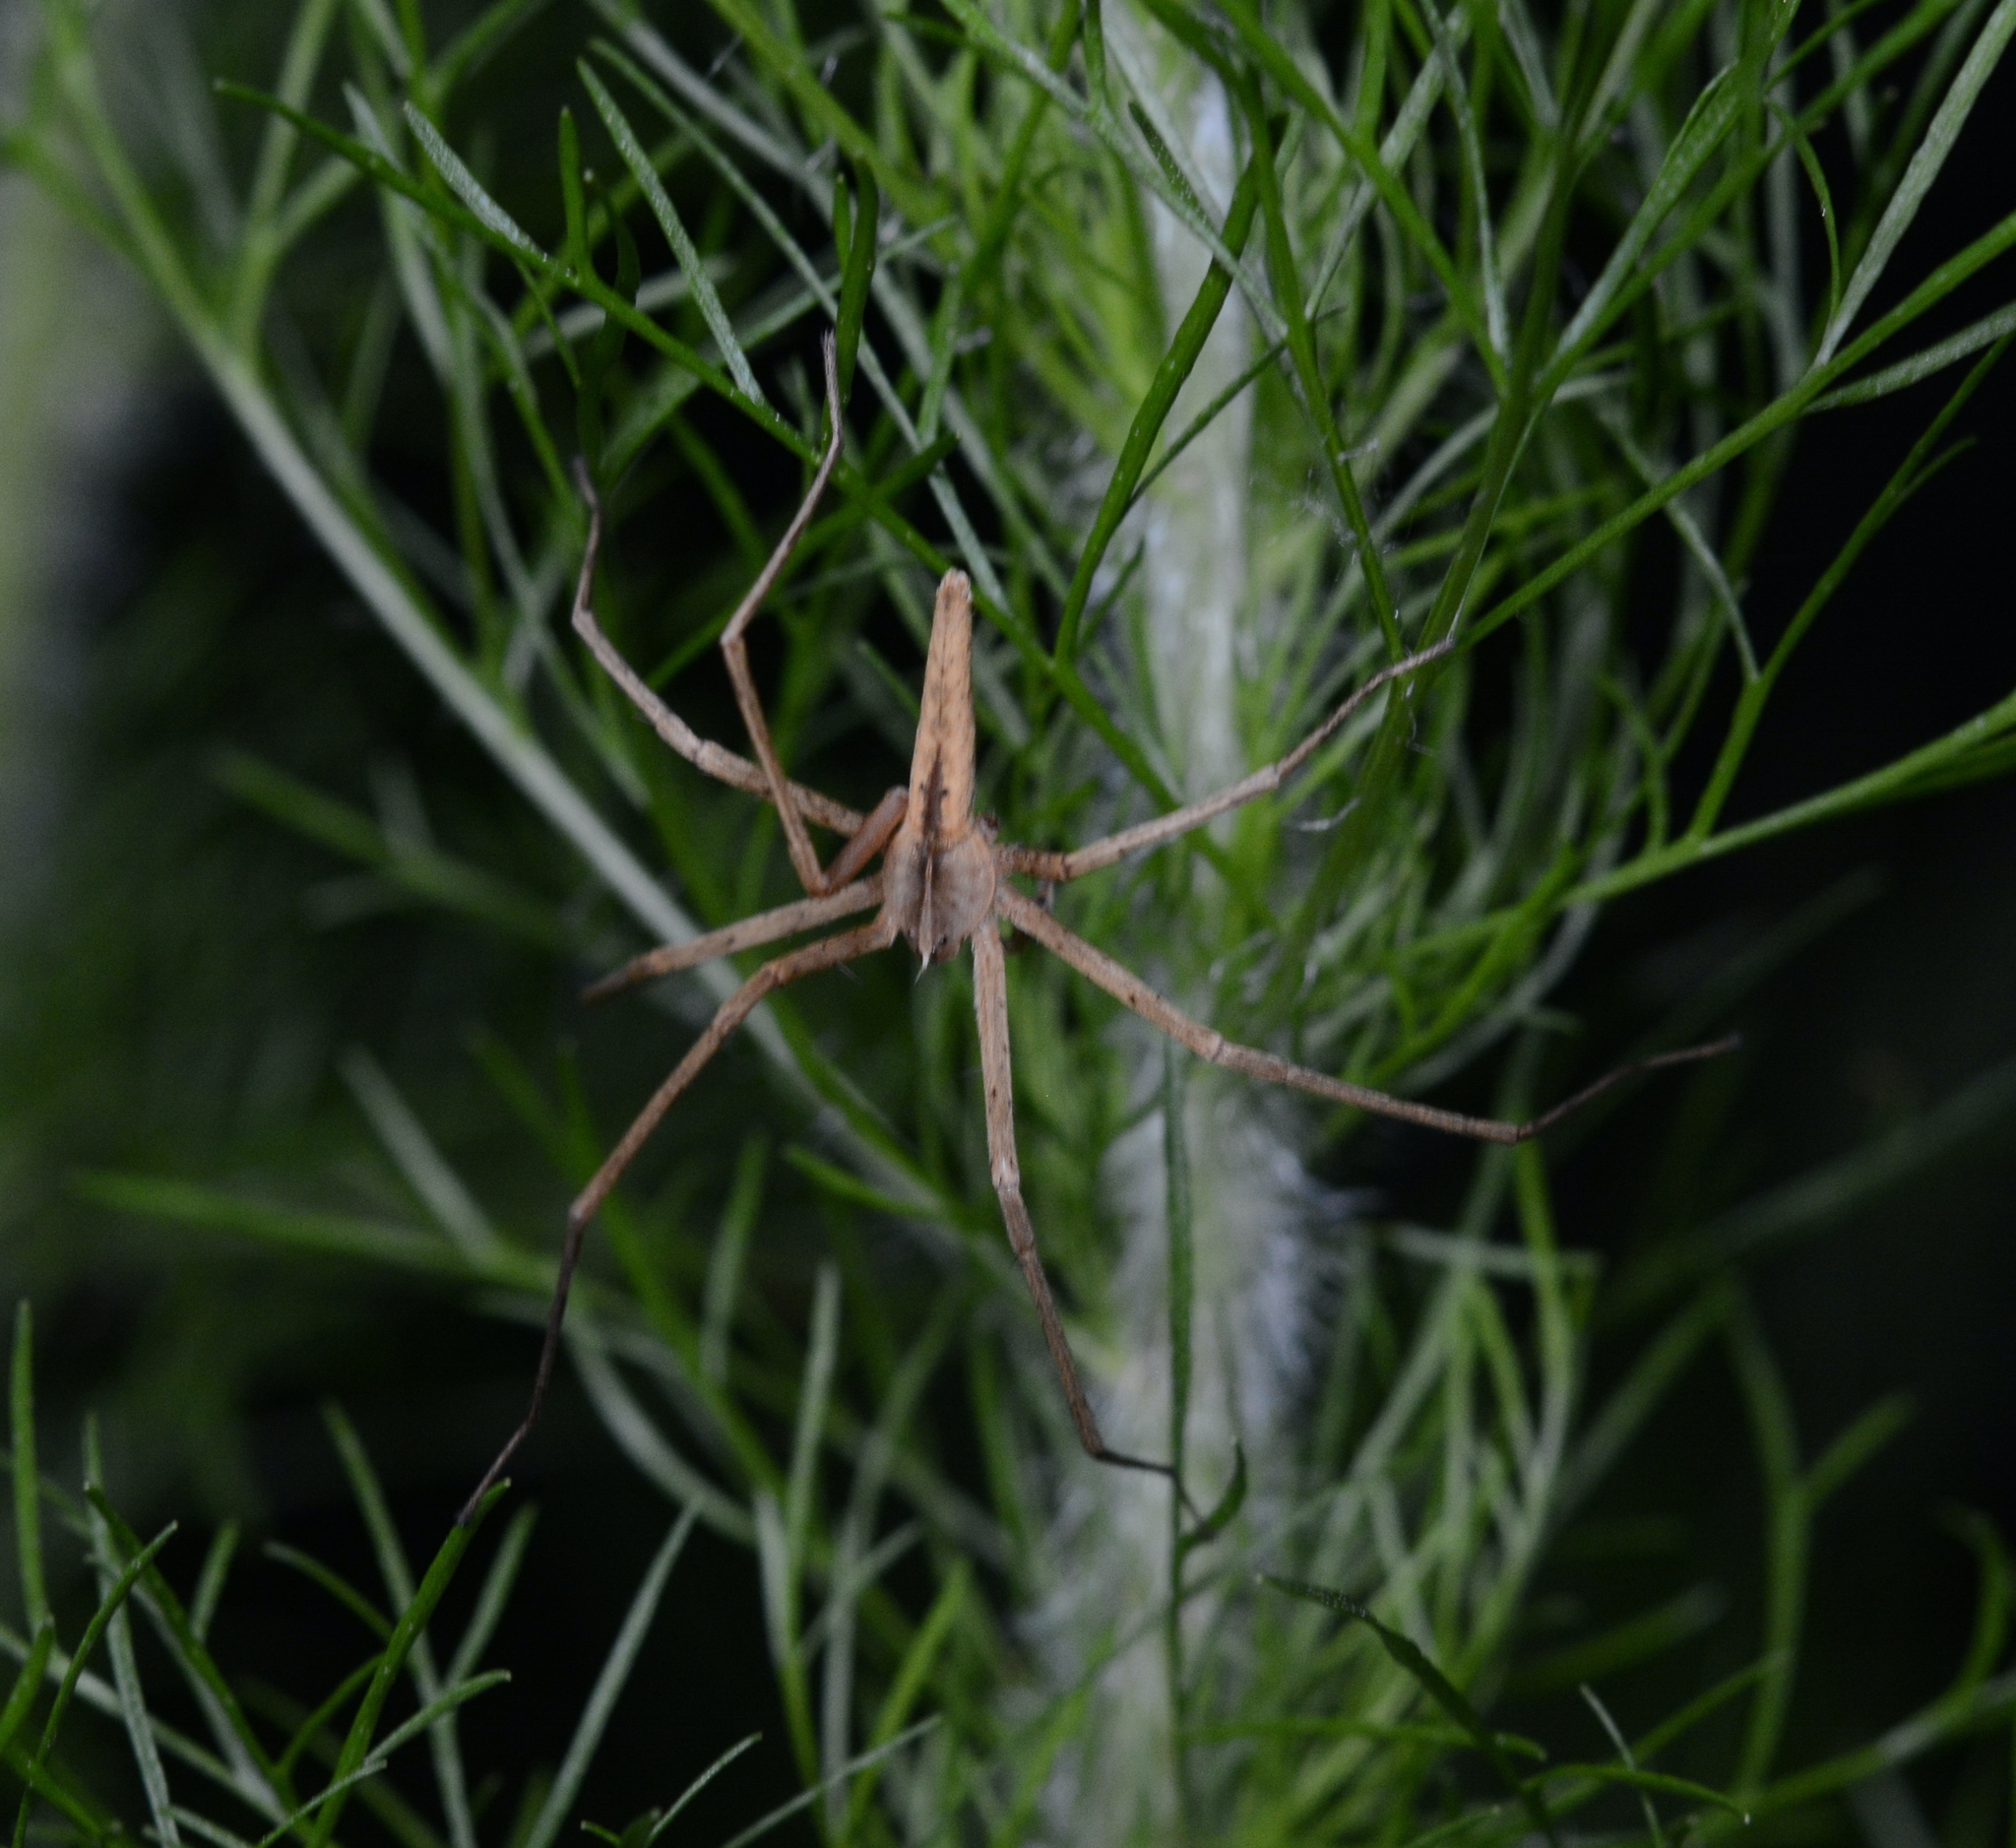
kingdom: Animalia
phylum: Arthropoda
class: Arachnida
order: Araneae
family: Pisauridae
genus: Pisaurina
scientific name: Pisaurina dubia
